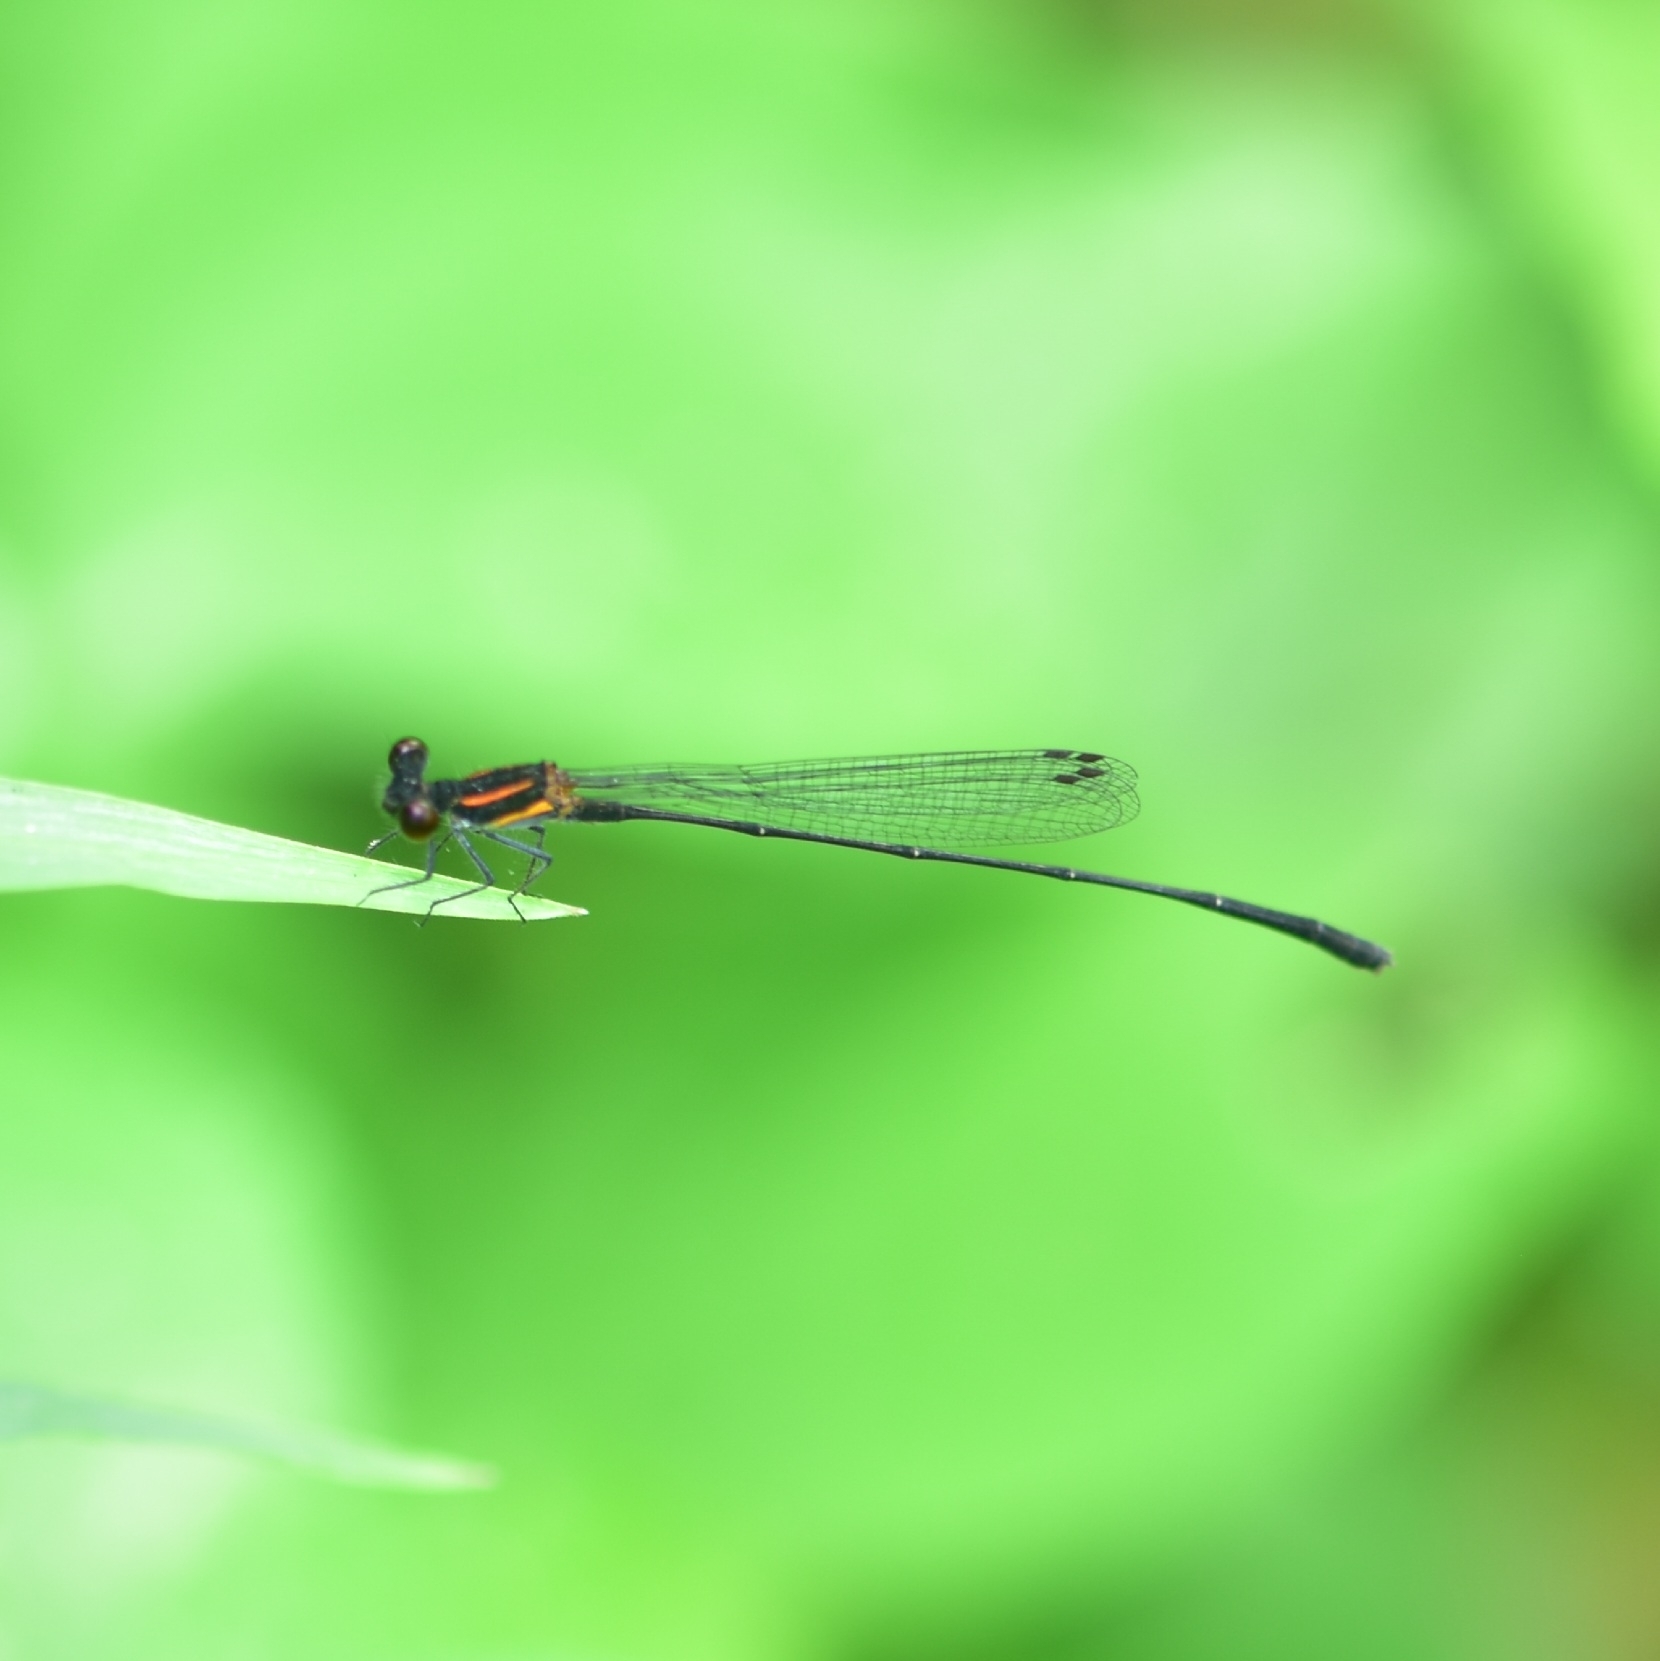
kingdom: Animalia
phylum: Arthropoda
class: Insecta
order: Odonata
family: Platycnemididae
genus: Prodasineura
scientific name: Prodasineura verticalis
